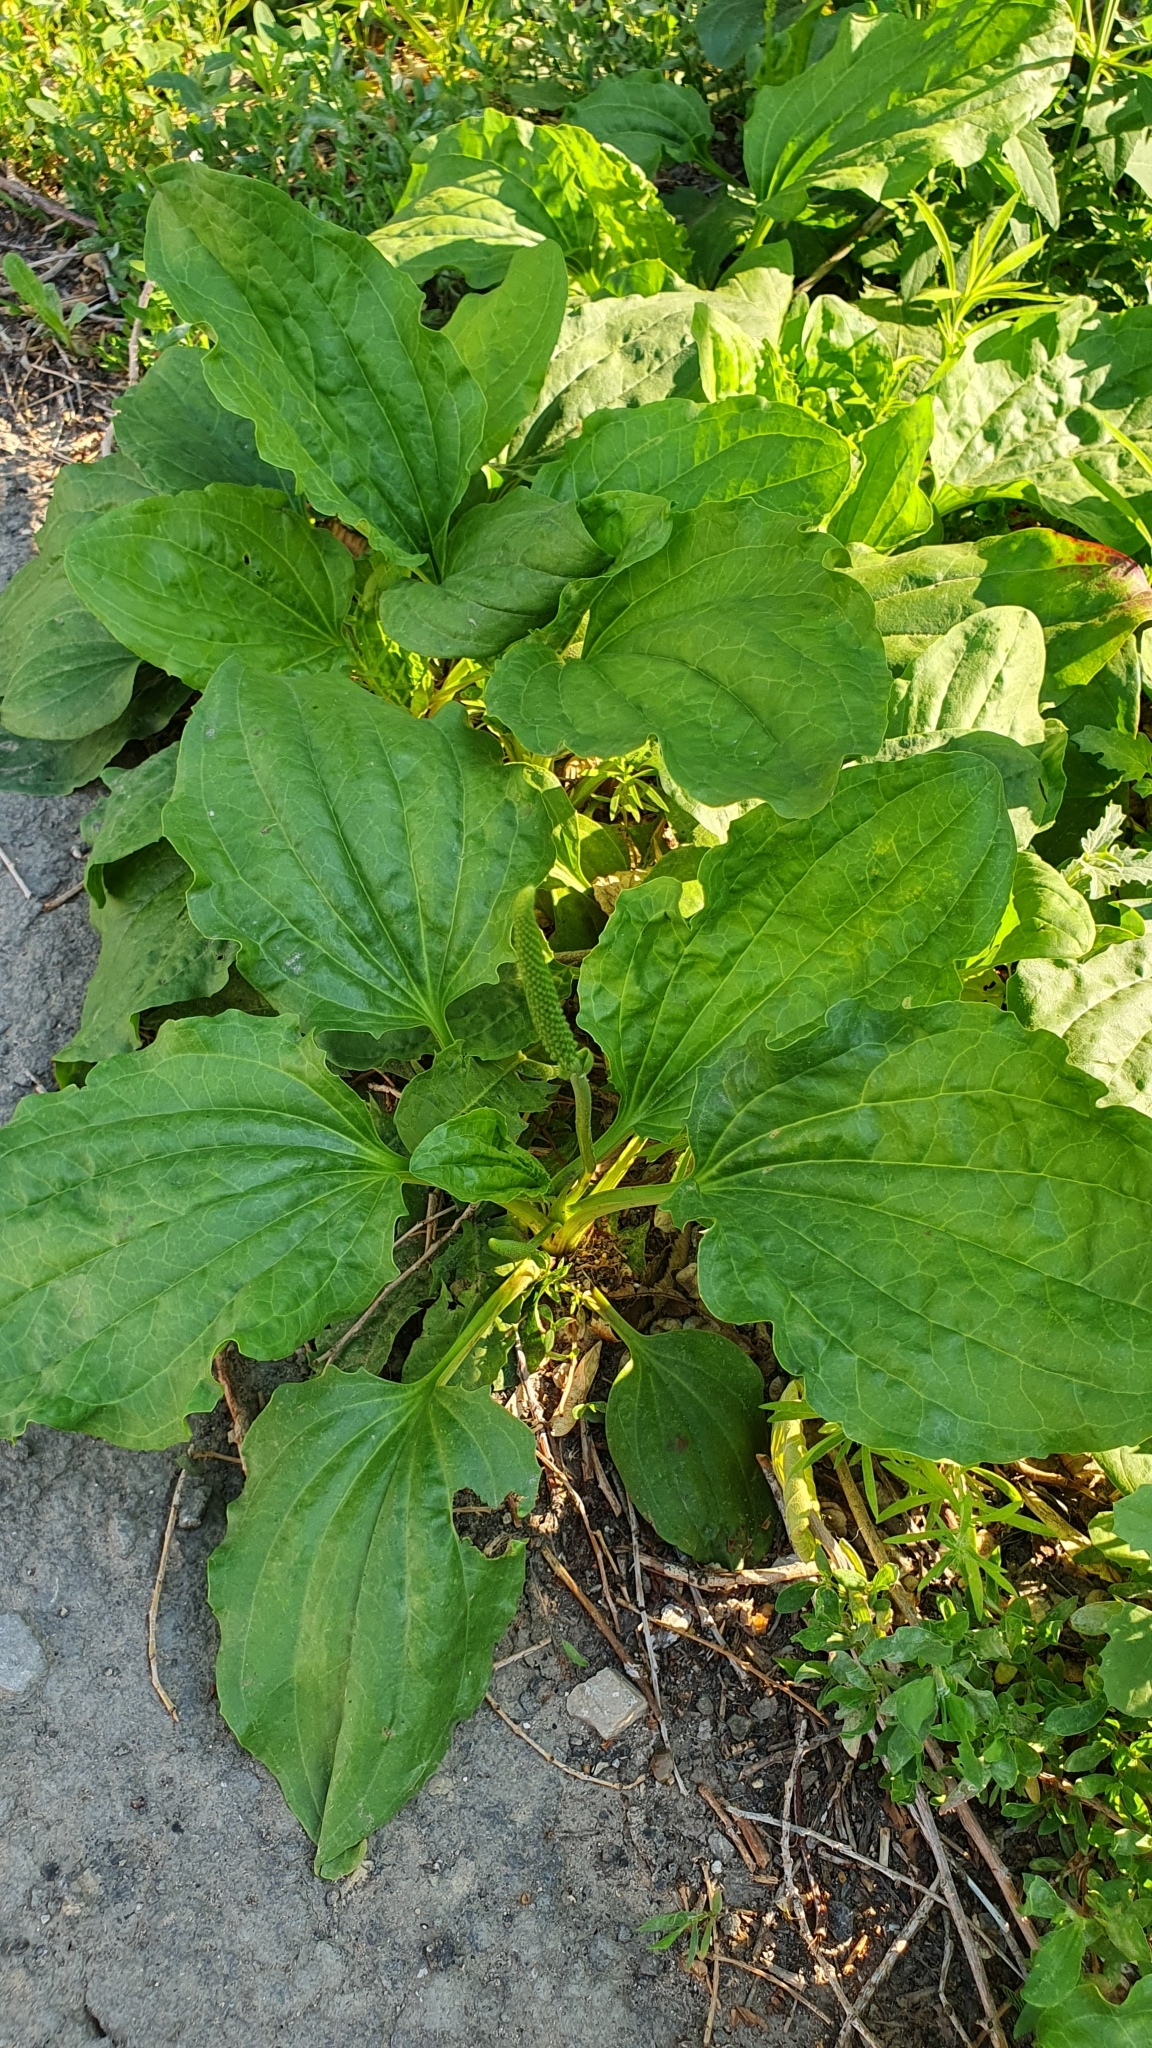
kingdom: Plantae
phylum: Tracheophyta
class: Magnoliopsida
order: Lamiales
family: Plantaginaceae
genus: Plantago
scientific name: Plantago major
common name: Common plantain
